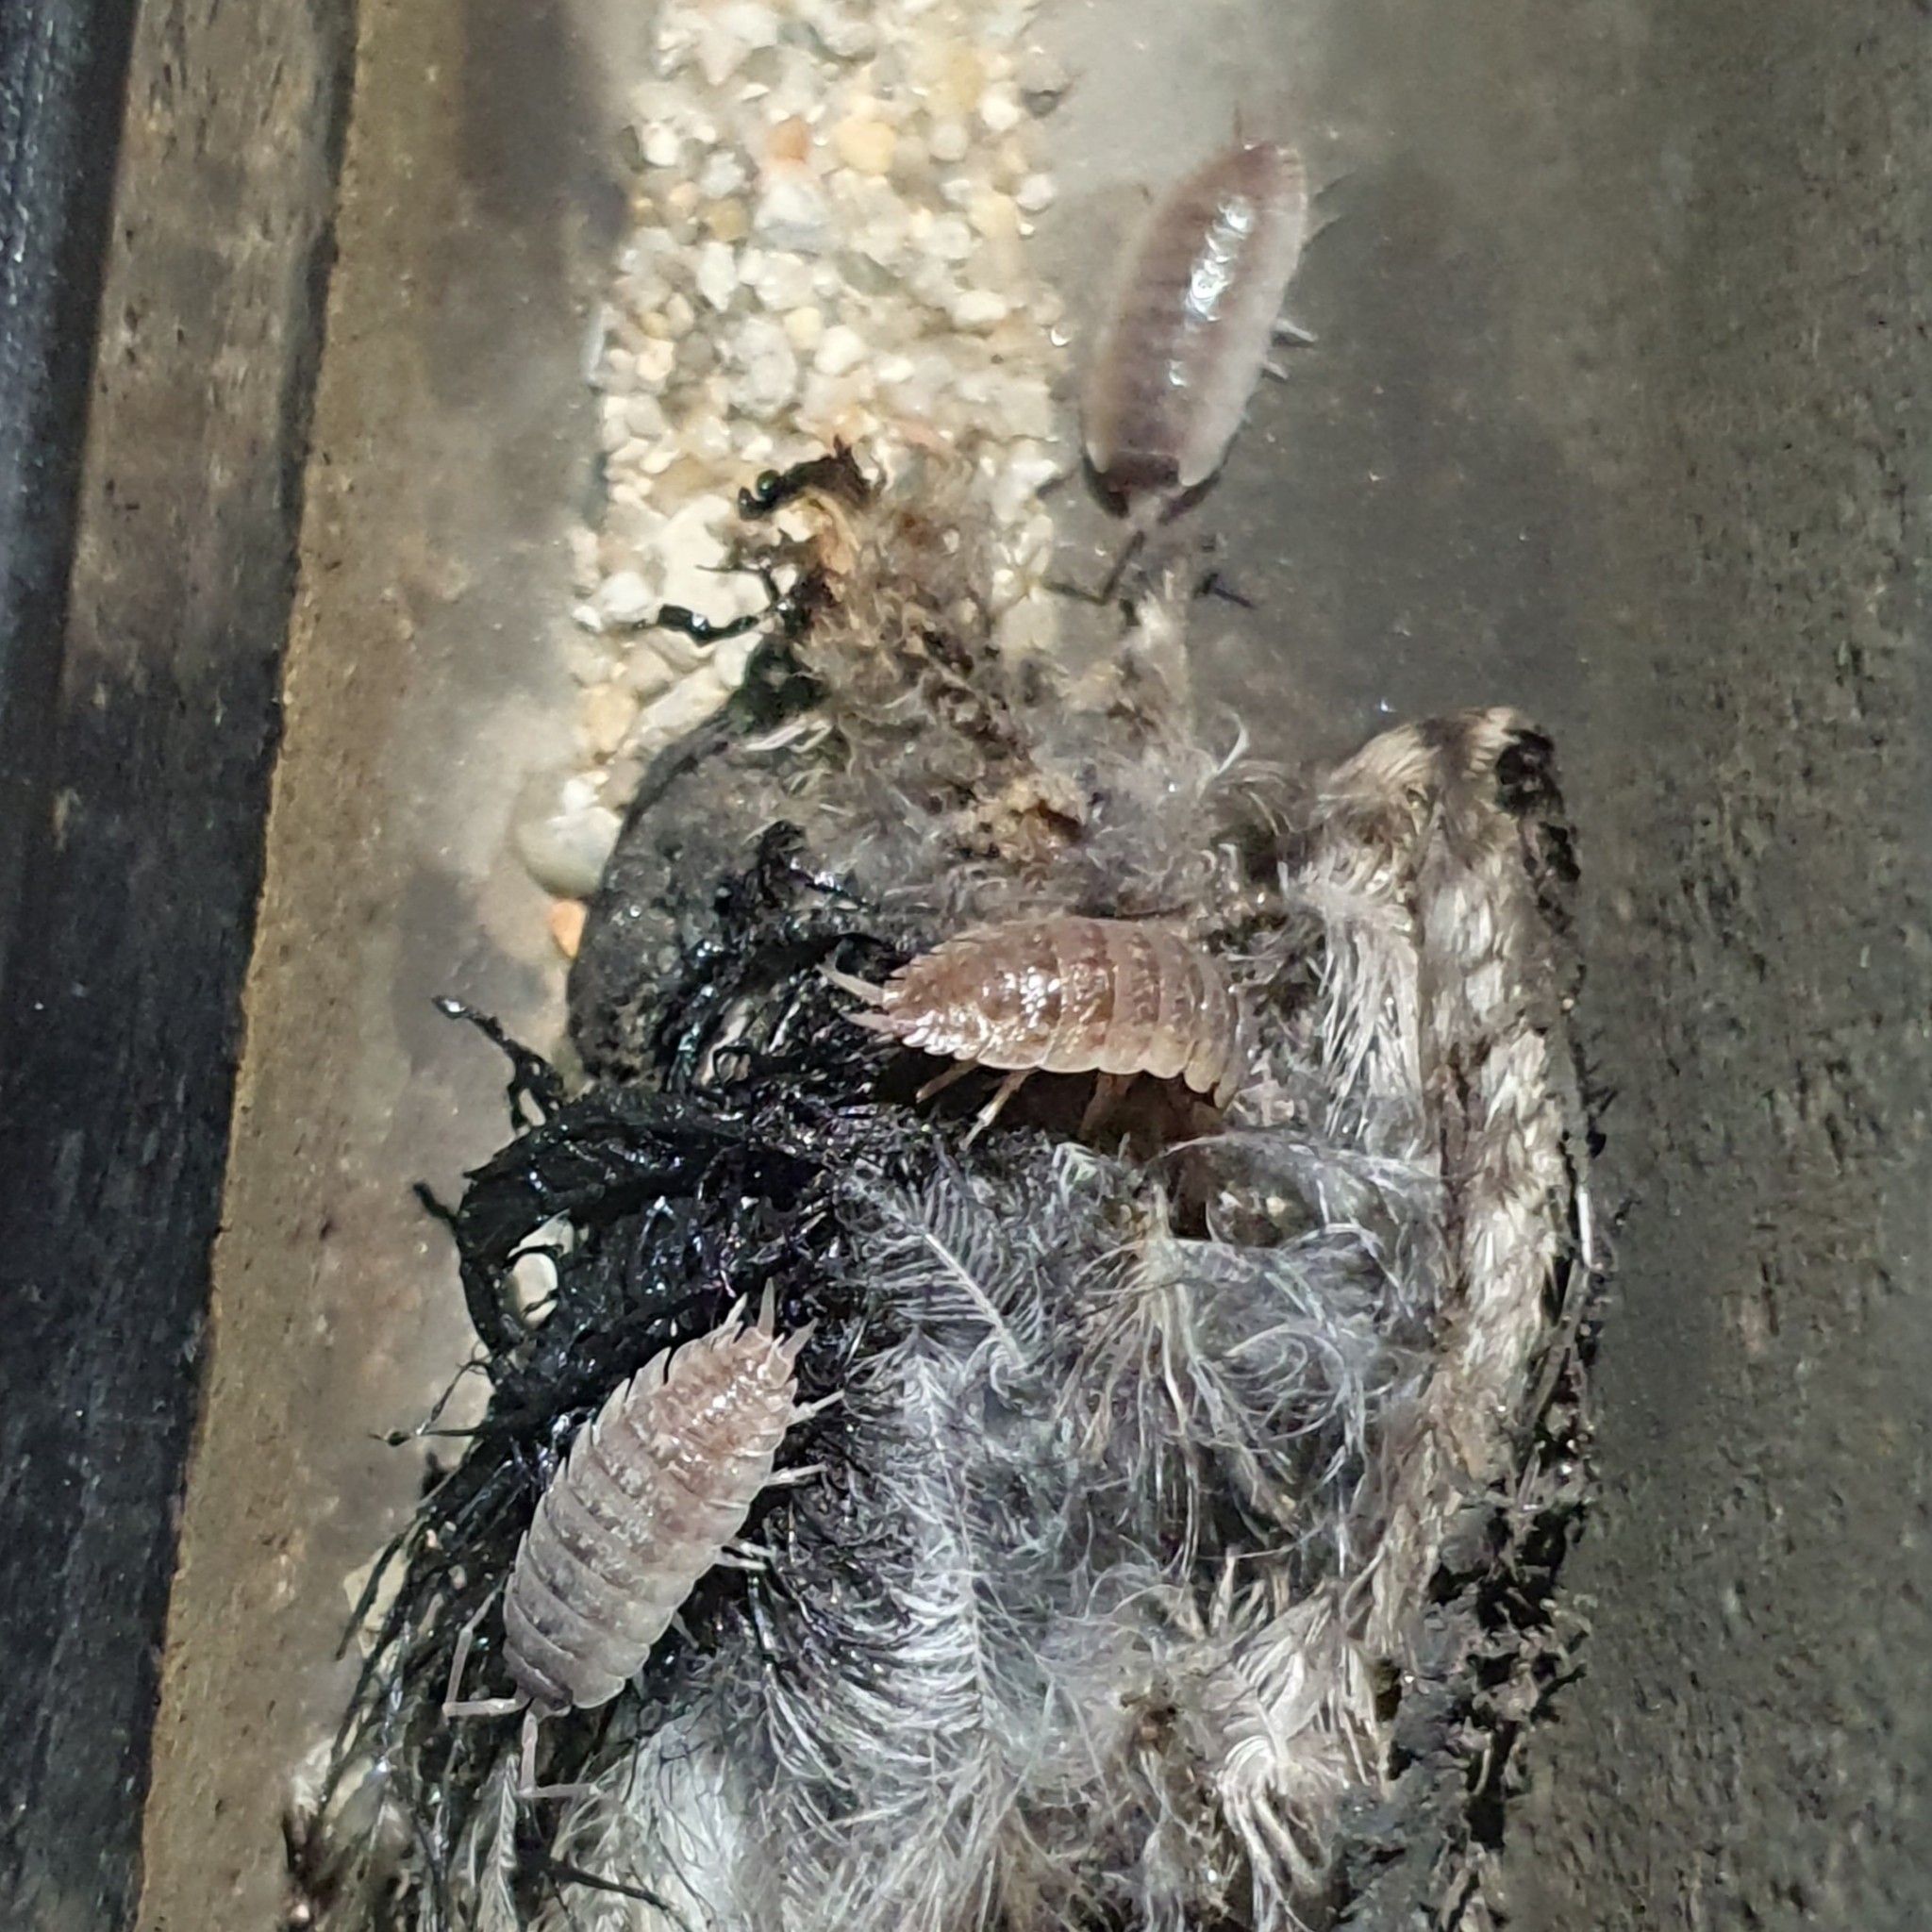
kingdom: Animalia
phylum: Arthropoda
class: Malacostraca
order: Isopoda
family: Porcellionidae
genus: Porcellio
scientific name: Porcellio variabilis
